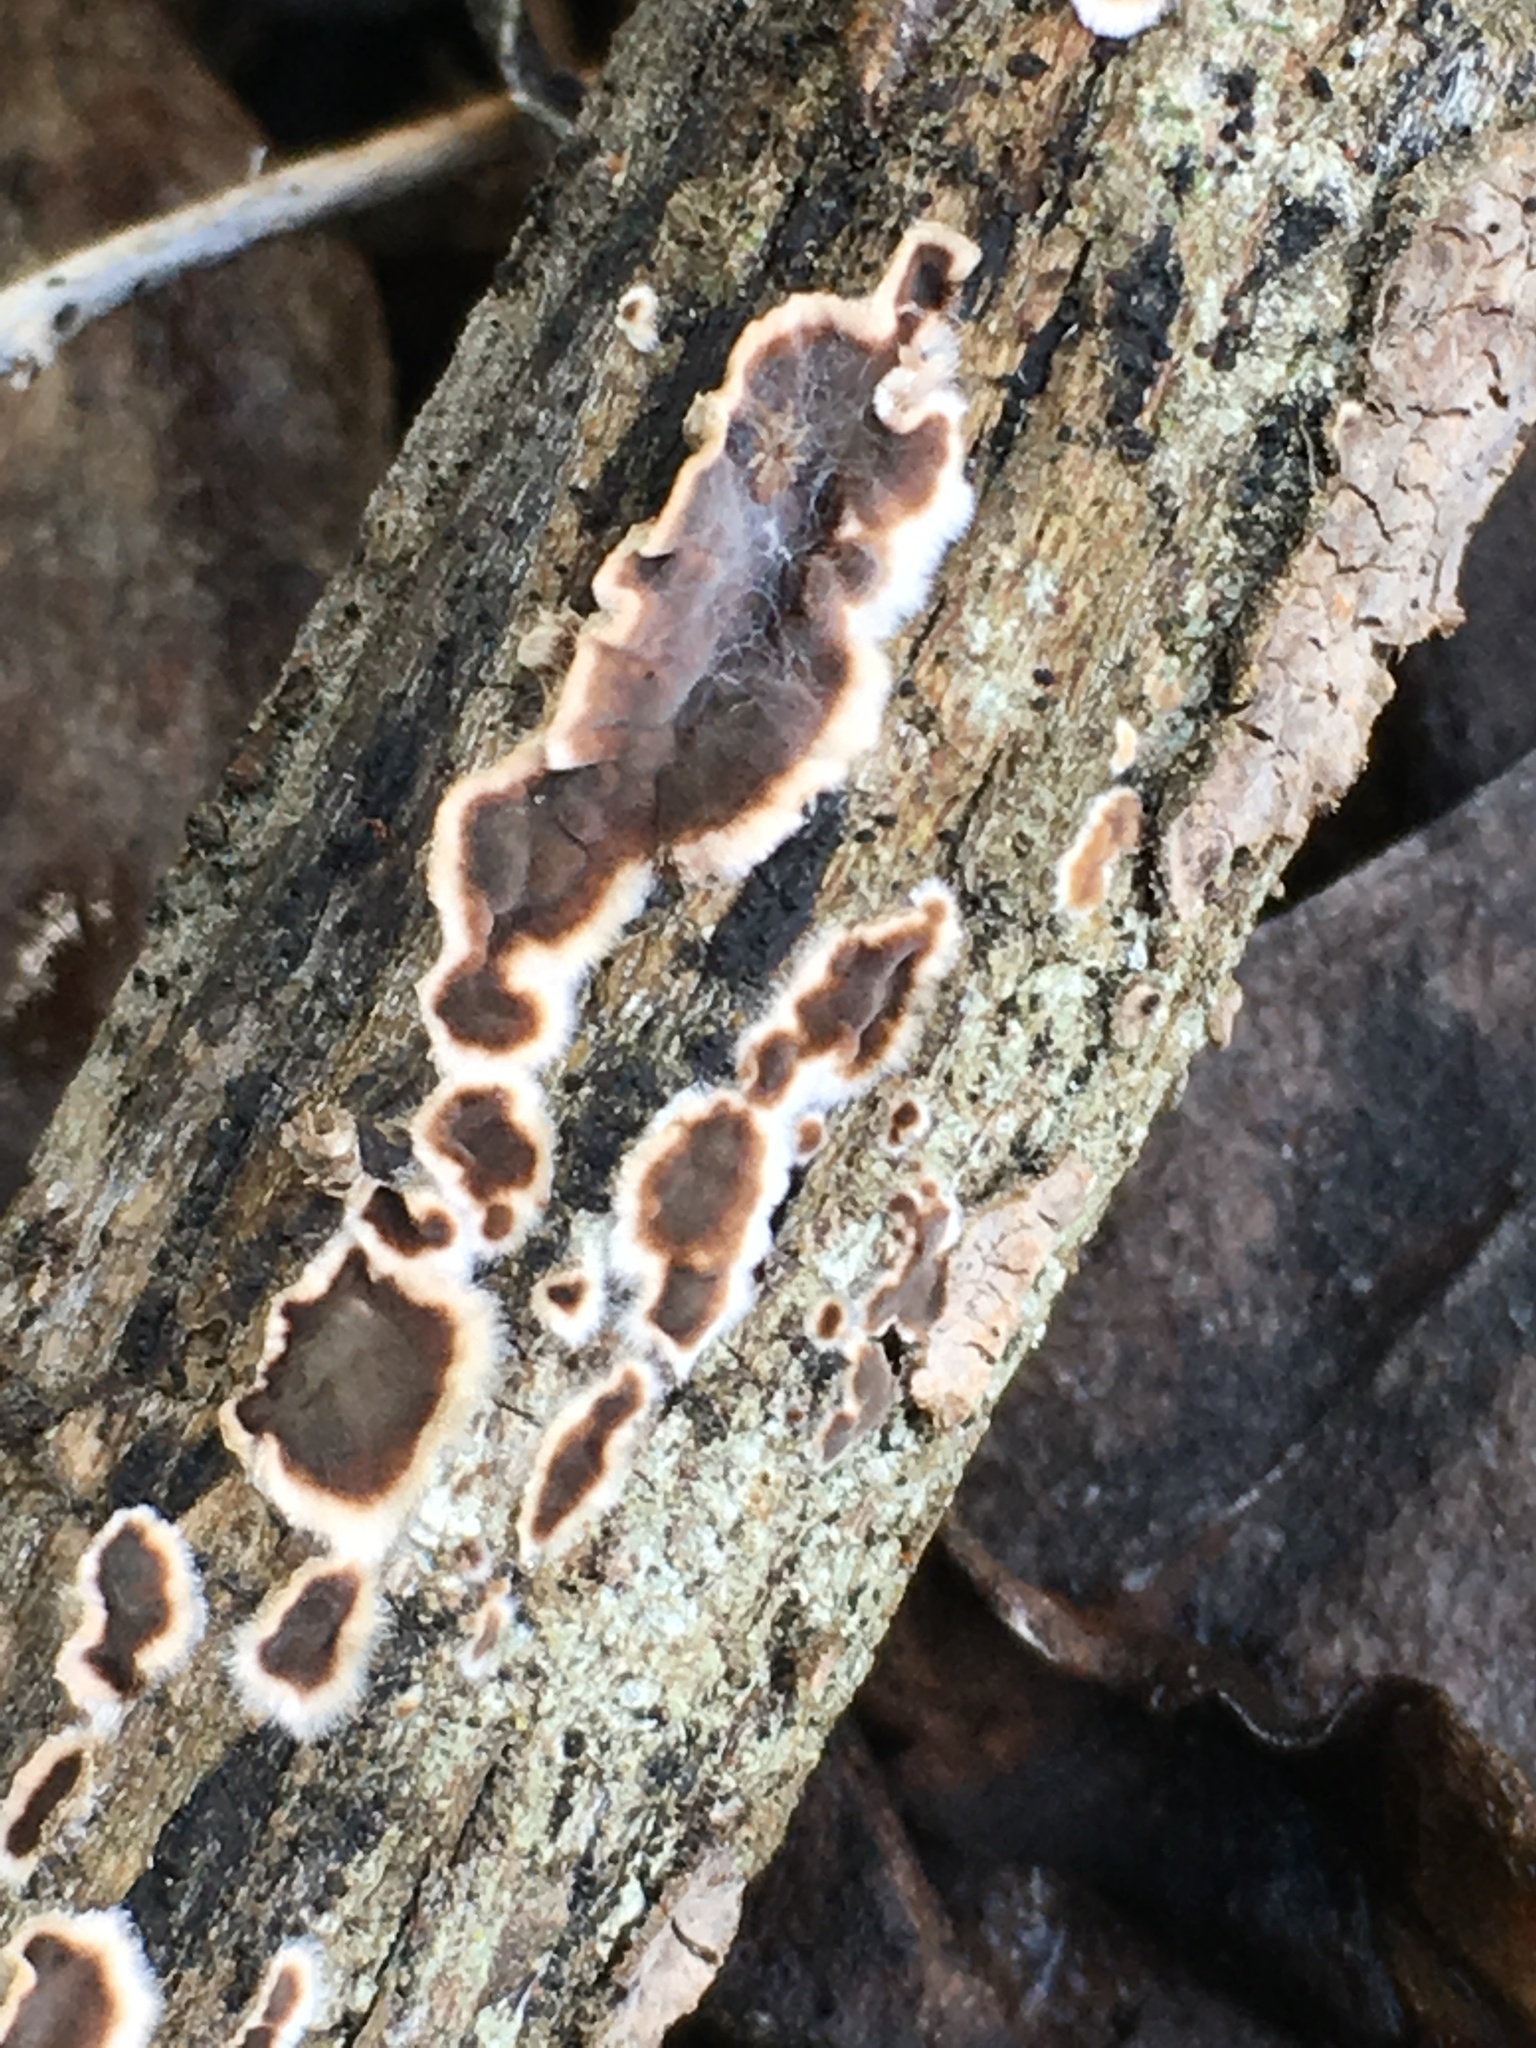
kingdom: Fungi
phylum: Basidiomycota
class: Agaricomycetes
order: Russulales
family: Peniophoraceae
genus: Peniophora
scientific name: Peniophora albobadia
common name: Giraffe spots
